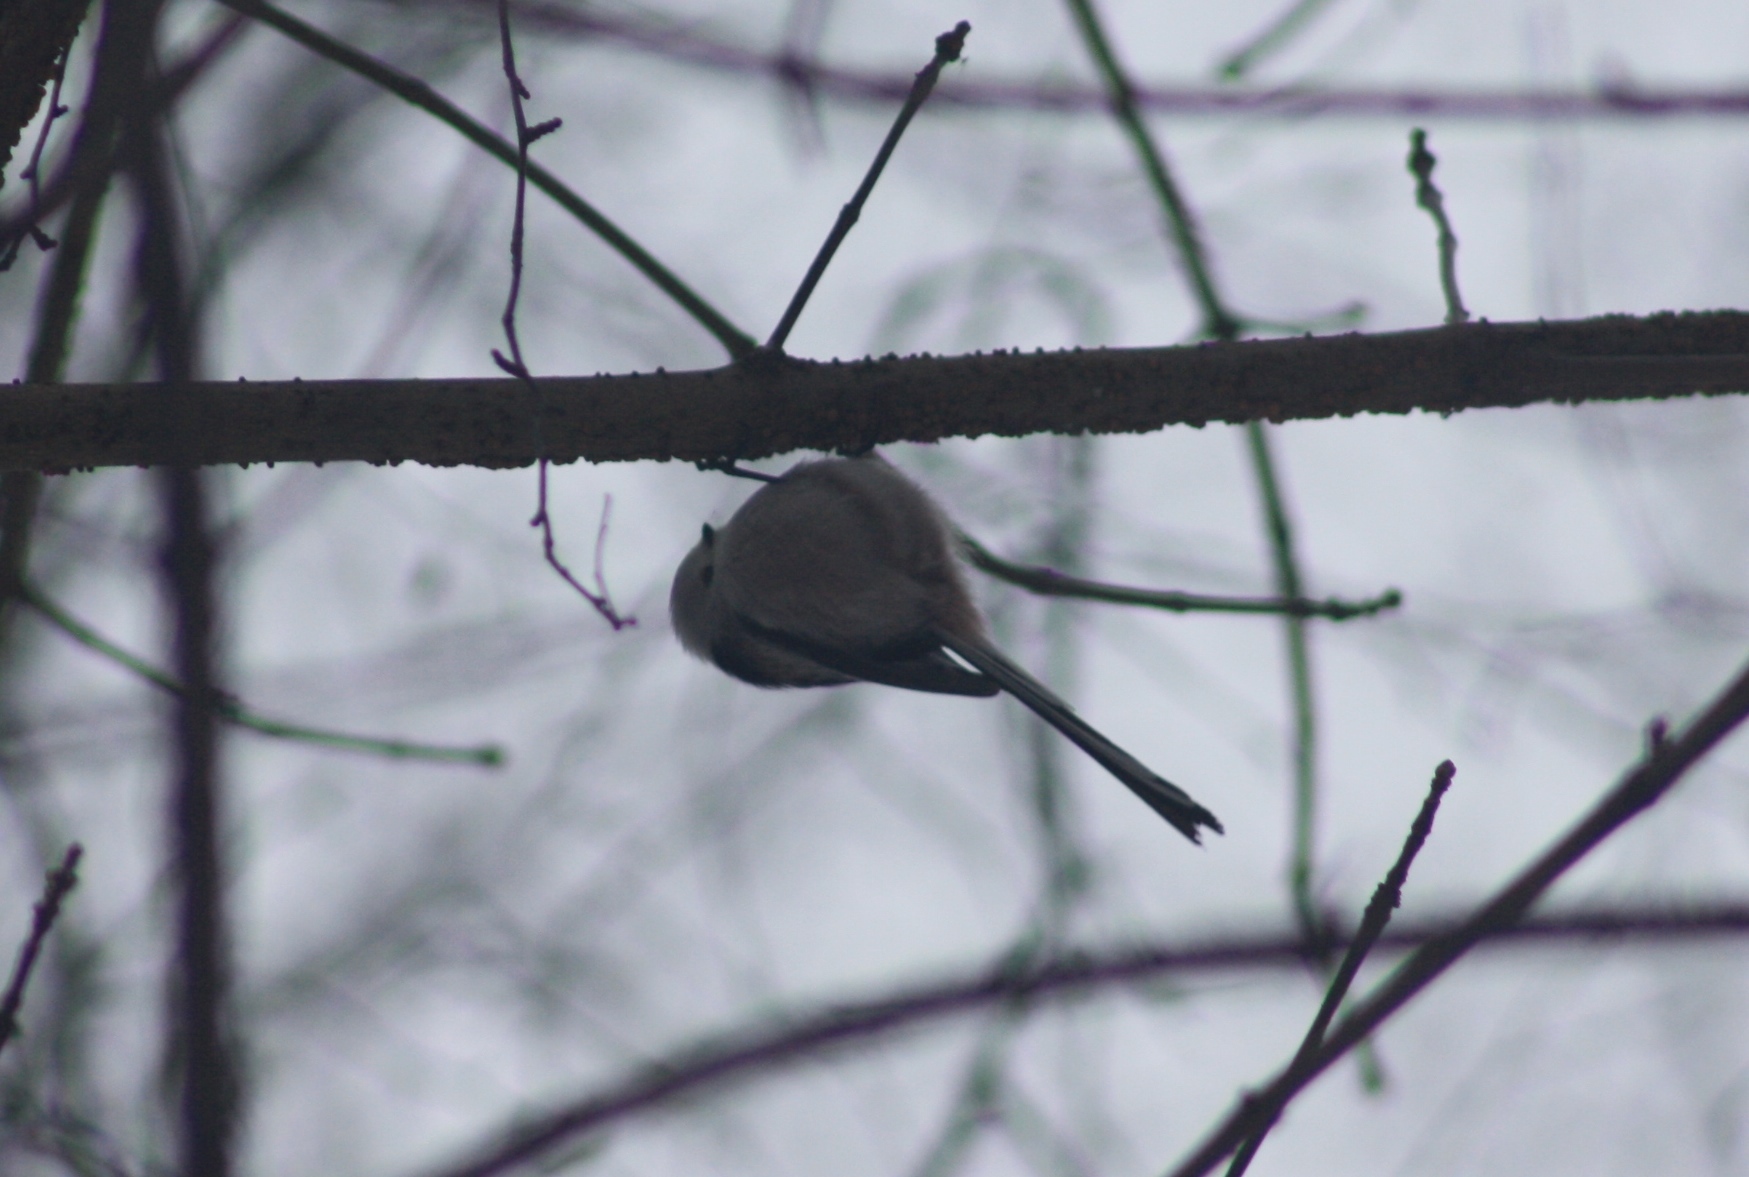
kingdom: Animalia
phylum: Chordata
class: Aves
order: Passeriformes
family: Aegithalidae
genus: Aegithalos
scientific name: Aegithalos caudatus
